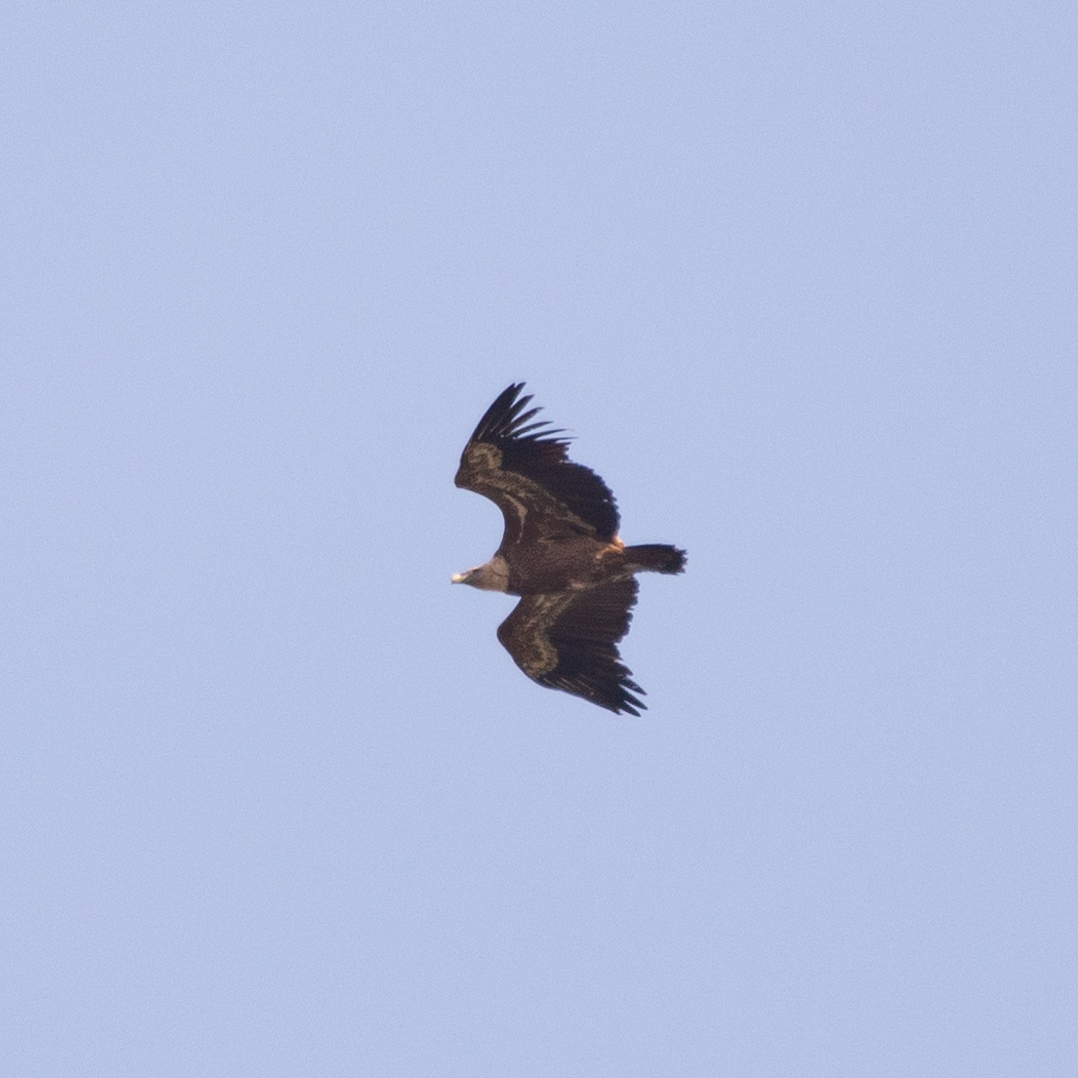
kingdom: Animalia
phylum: Chordata
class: Aves
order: Accipitriformes
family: Accipitridae
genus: Gyps
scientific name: Gyps fulvus
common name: Griffon vulture
